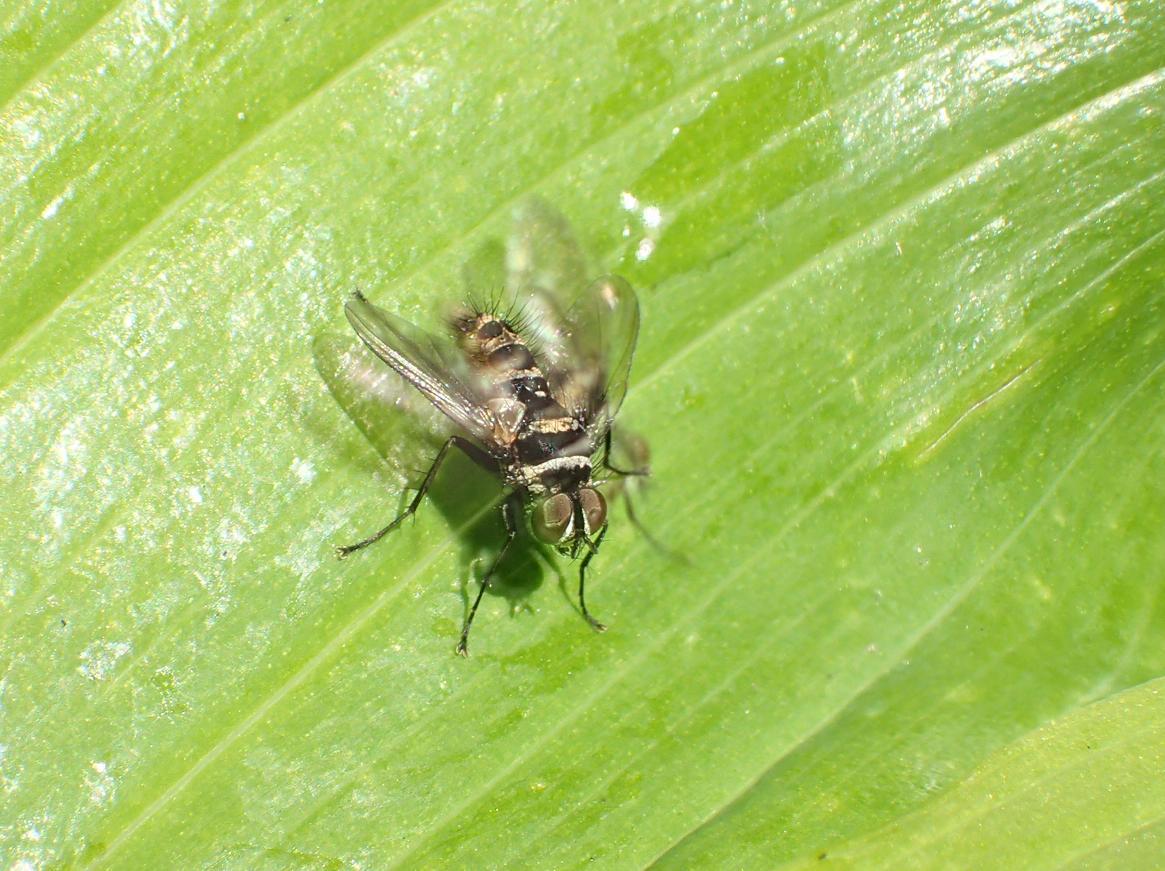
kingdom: Animalia
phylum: Arthropoda
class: Insecta
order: Diptera
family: Tachinidae
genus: Trigonospila
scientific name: Trigonospila brevifacies
